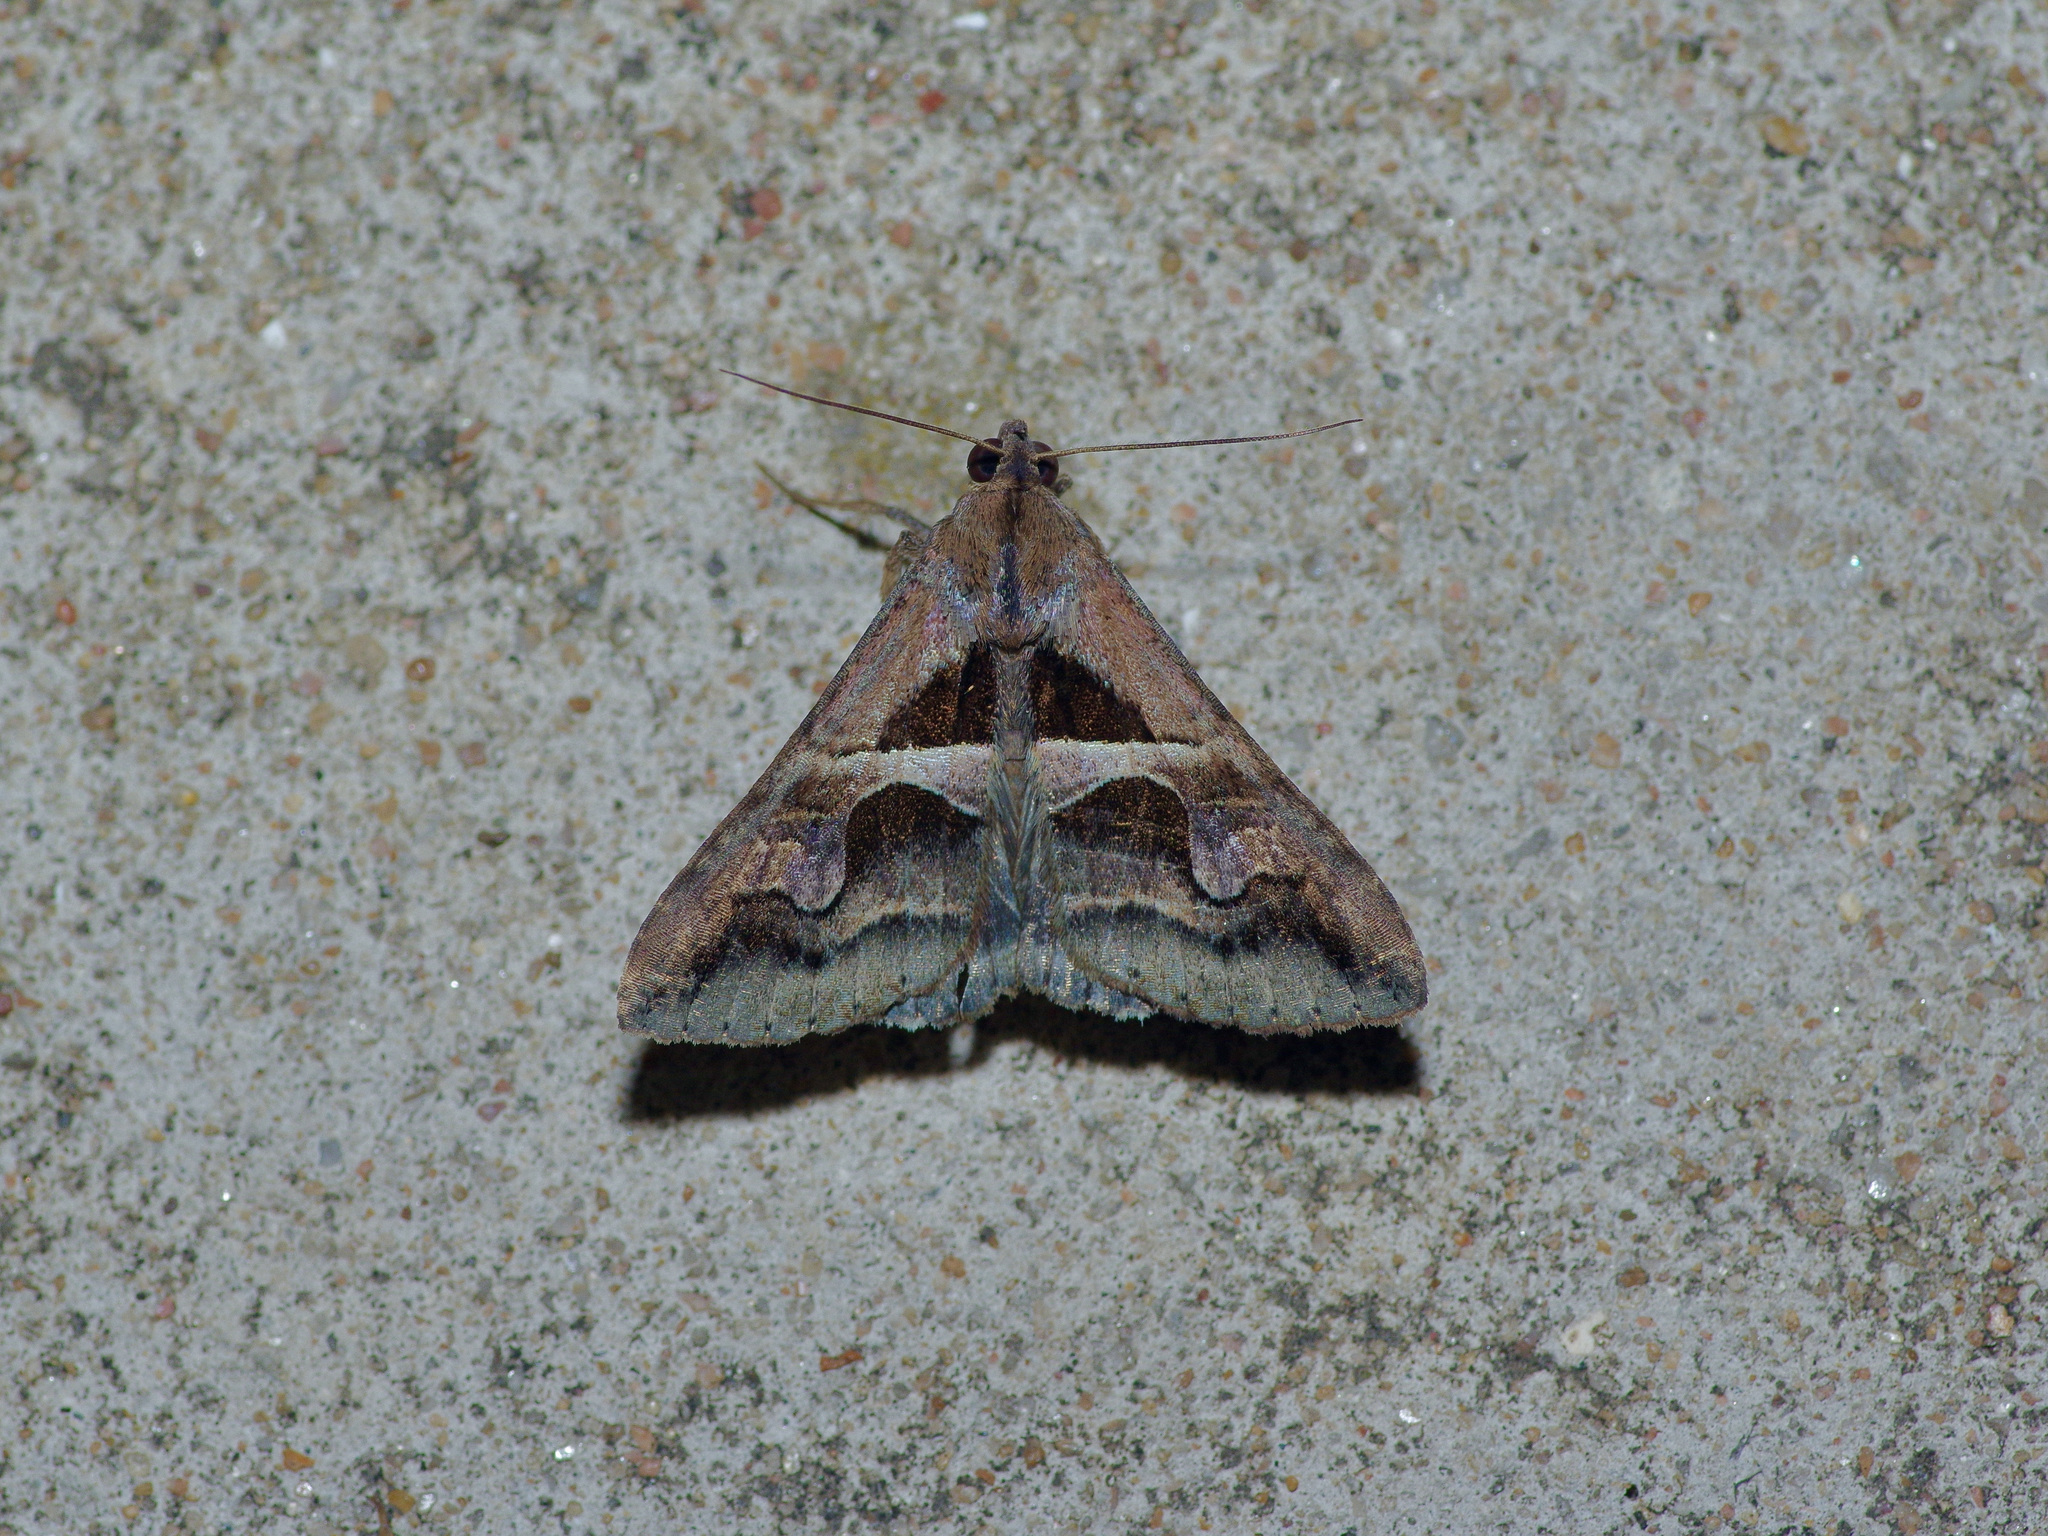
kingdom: Animalia
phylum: Arthropoda
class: Insecta
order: Lepidoptera
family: Erebidae
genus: Melipotis
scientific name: Melipotis cellaris
